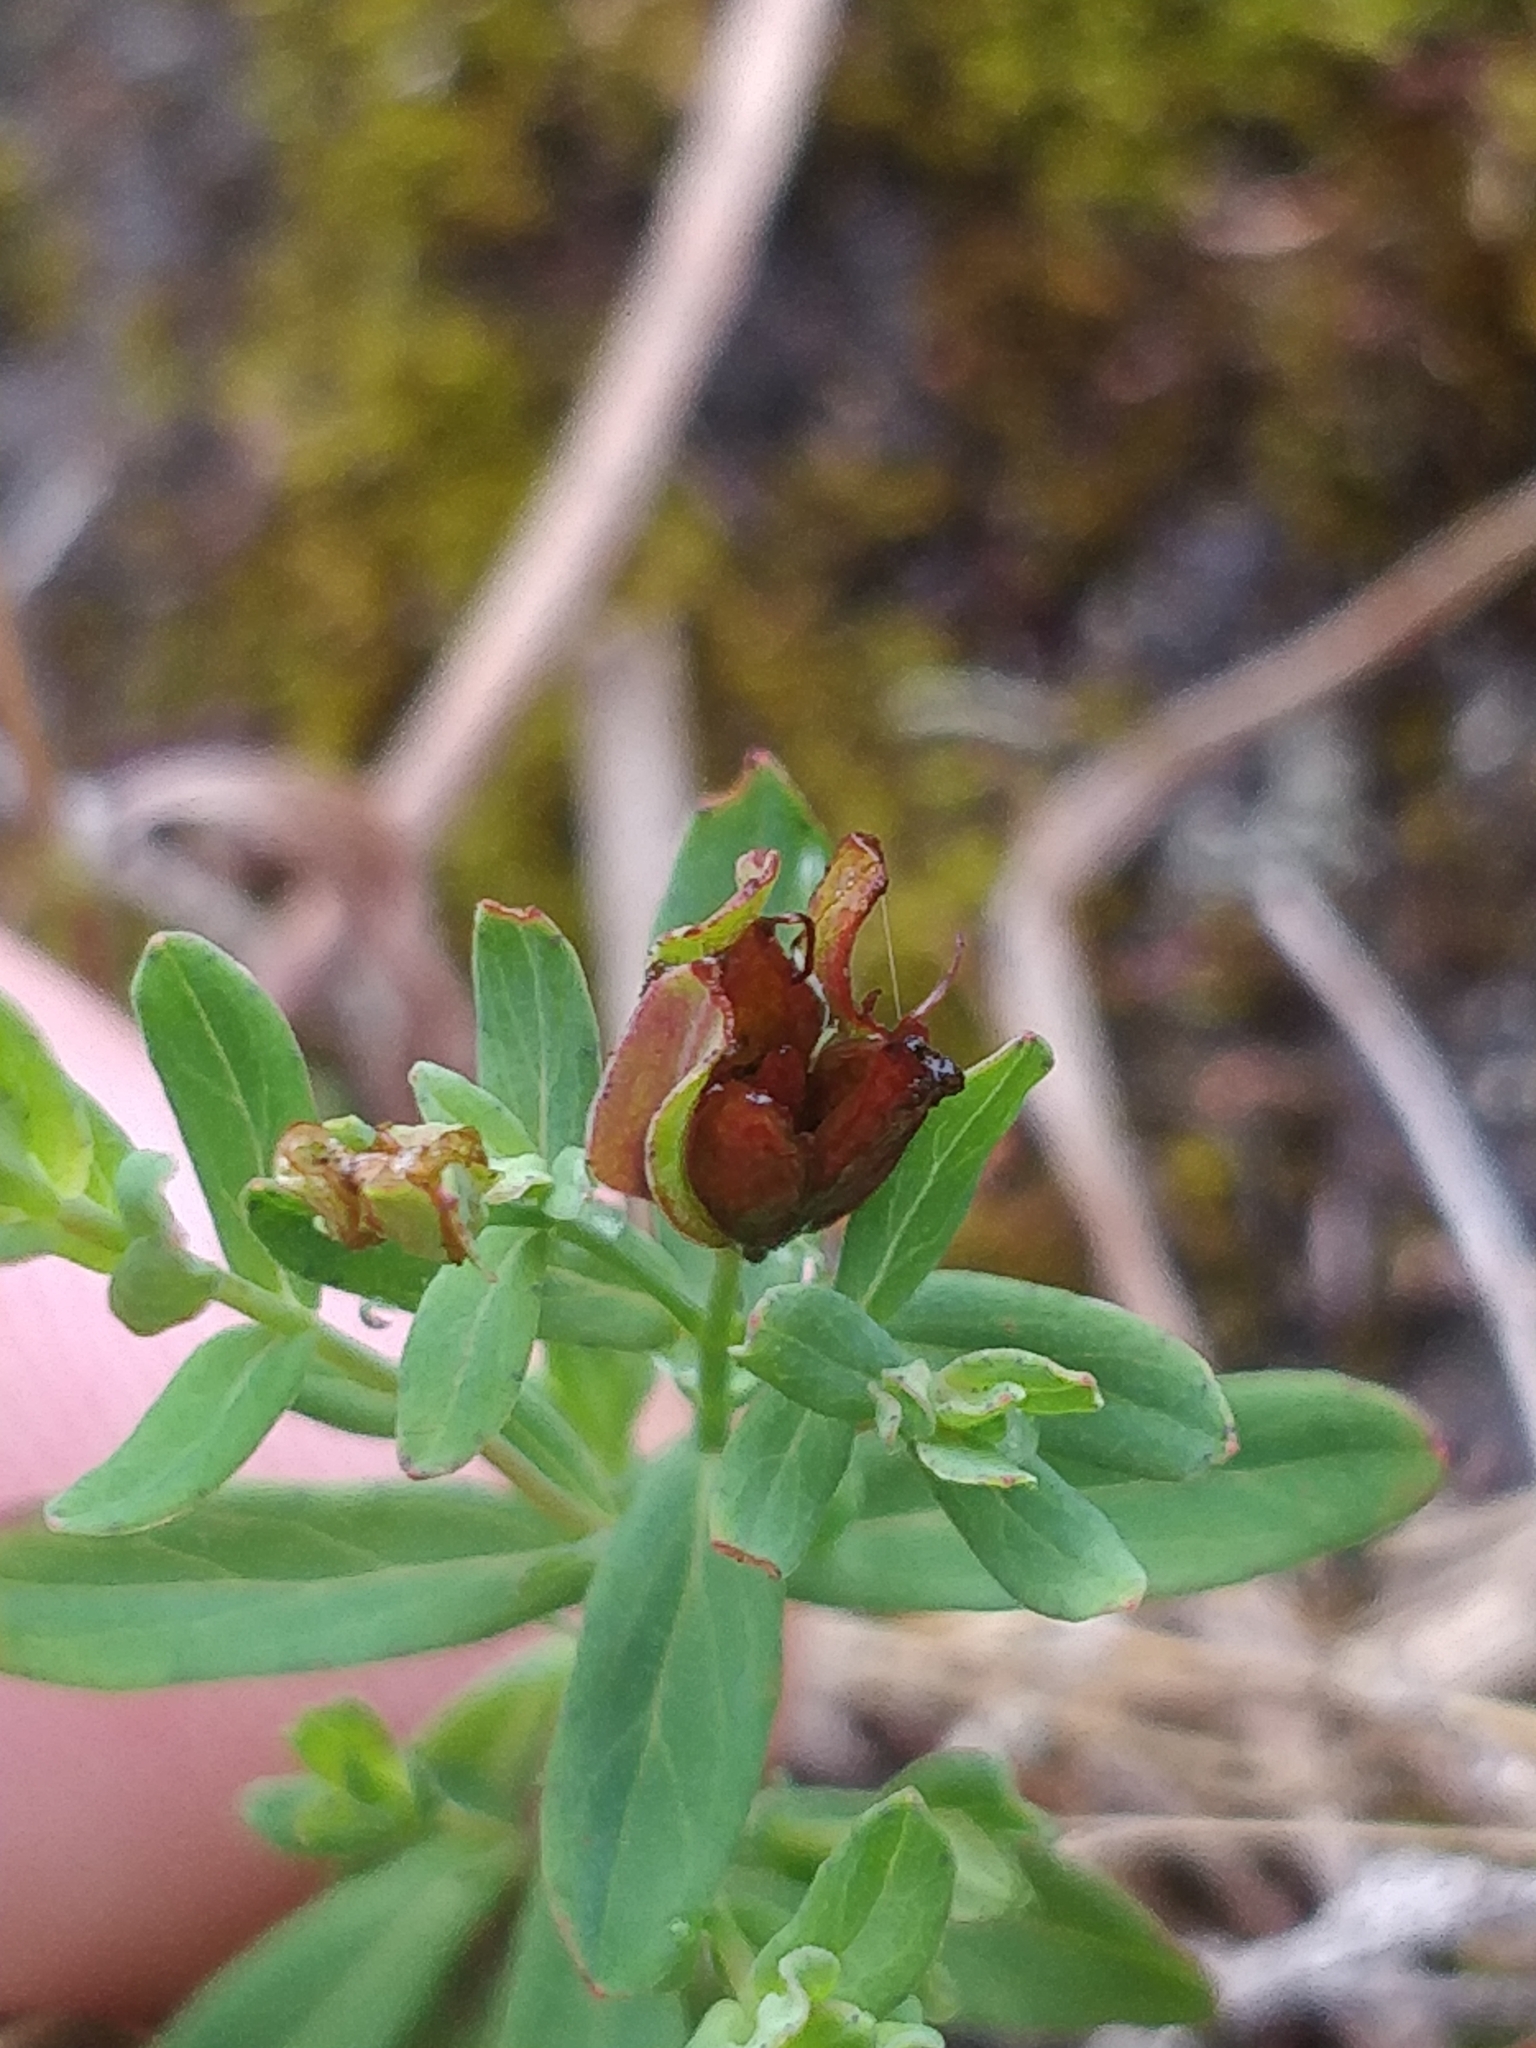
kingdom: Plantae
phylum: Tracheophyta
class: Magnoliopsida
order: Malpighiales
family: Hypericaceae
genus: Hypericum
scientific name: Hypericum humifusum
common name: Trailing st. john's-wort
